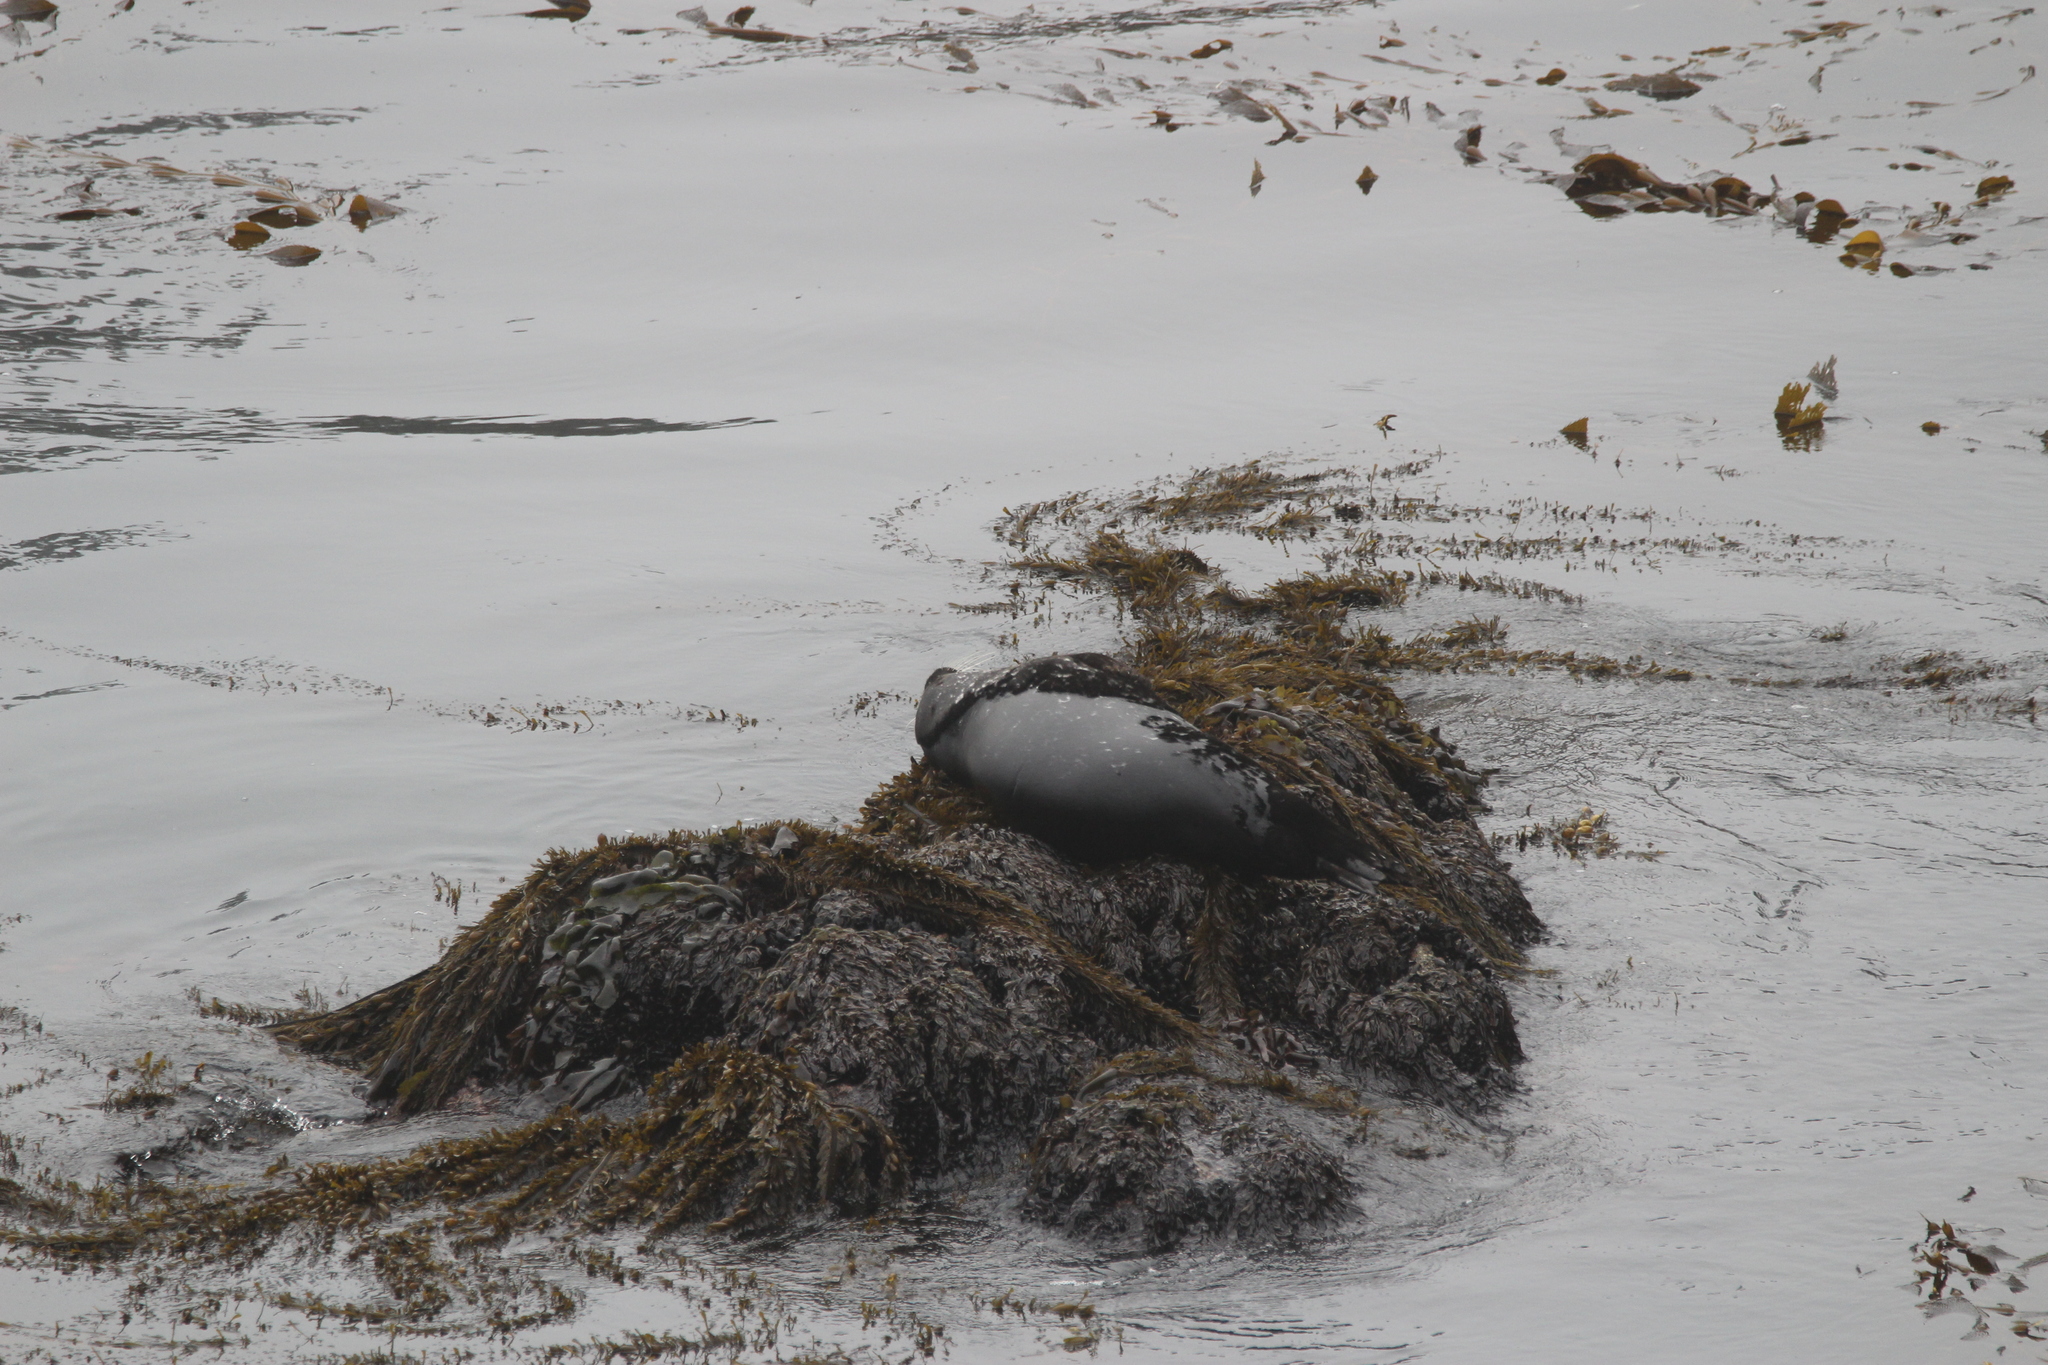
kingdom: Animalia
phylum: Chordata
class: Mammalia
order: Carnivora
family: Phocidae
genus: Phoca
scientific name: Phoca vitulina
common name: Harbor seal
